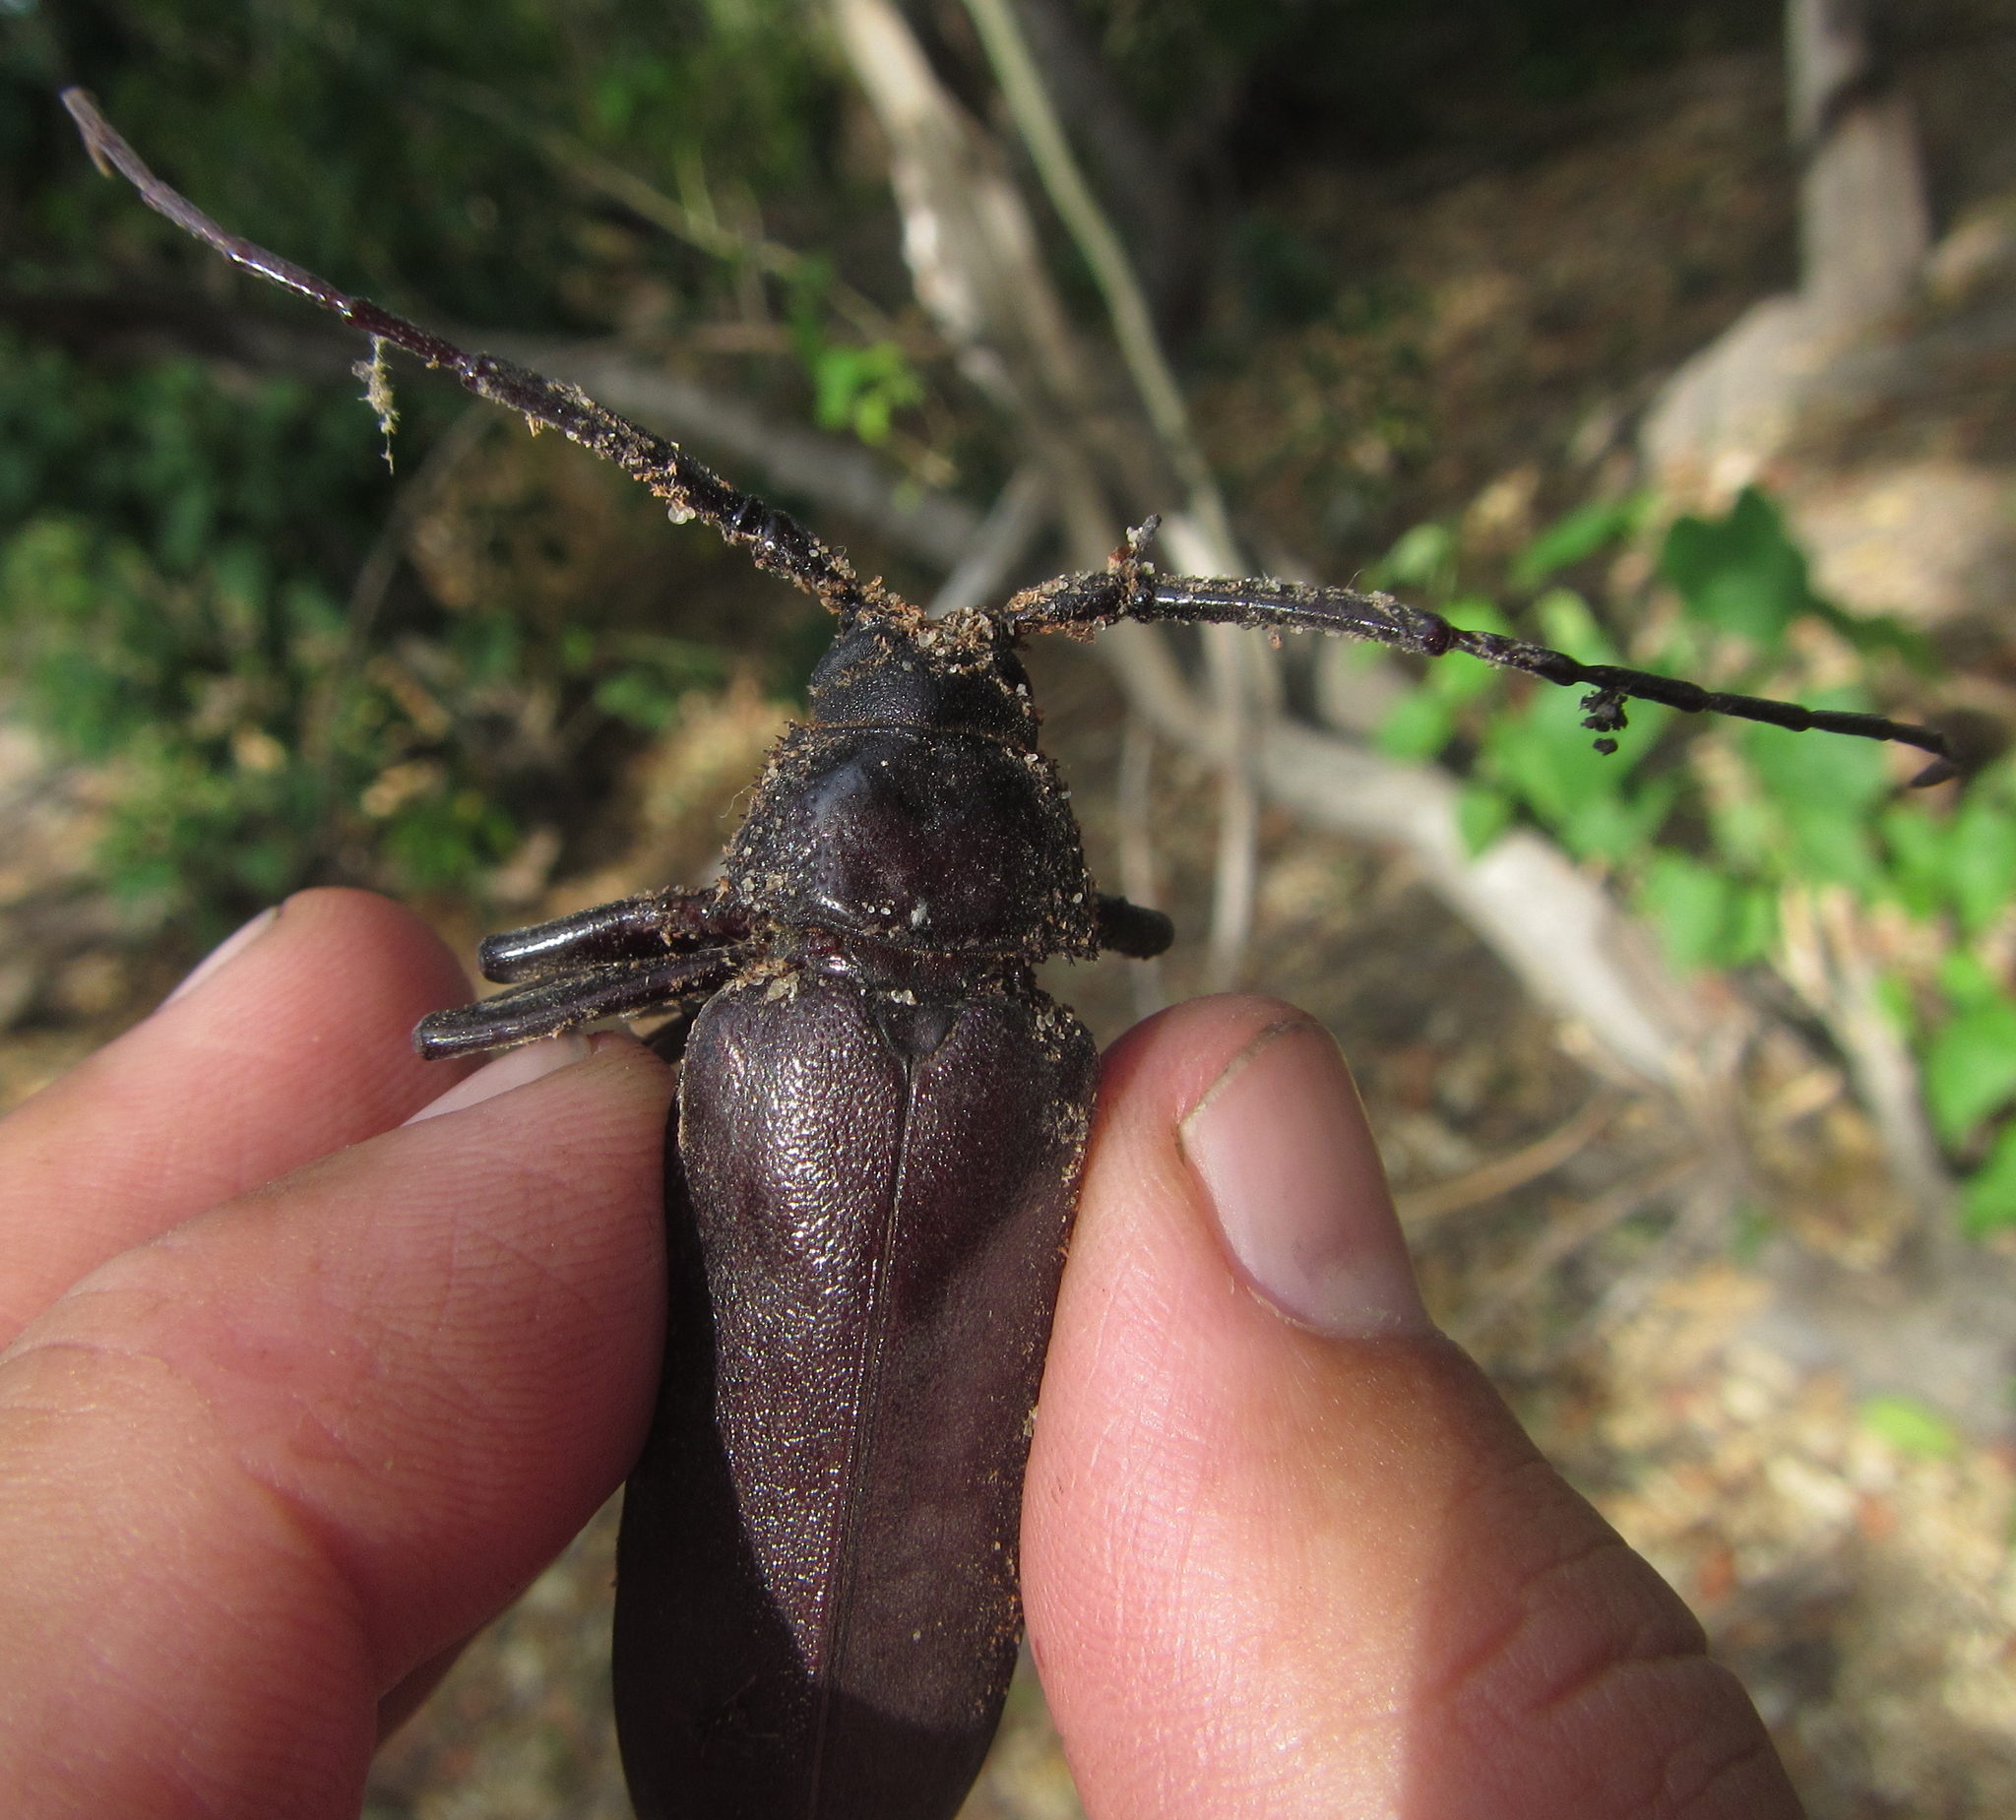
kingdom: Animalia
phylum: Arthropoda
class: Insecta
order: Coleoptera
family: Cerambycidae
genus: Macrotoma
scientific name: Macrotoma palmata
